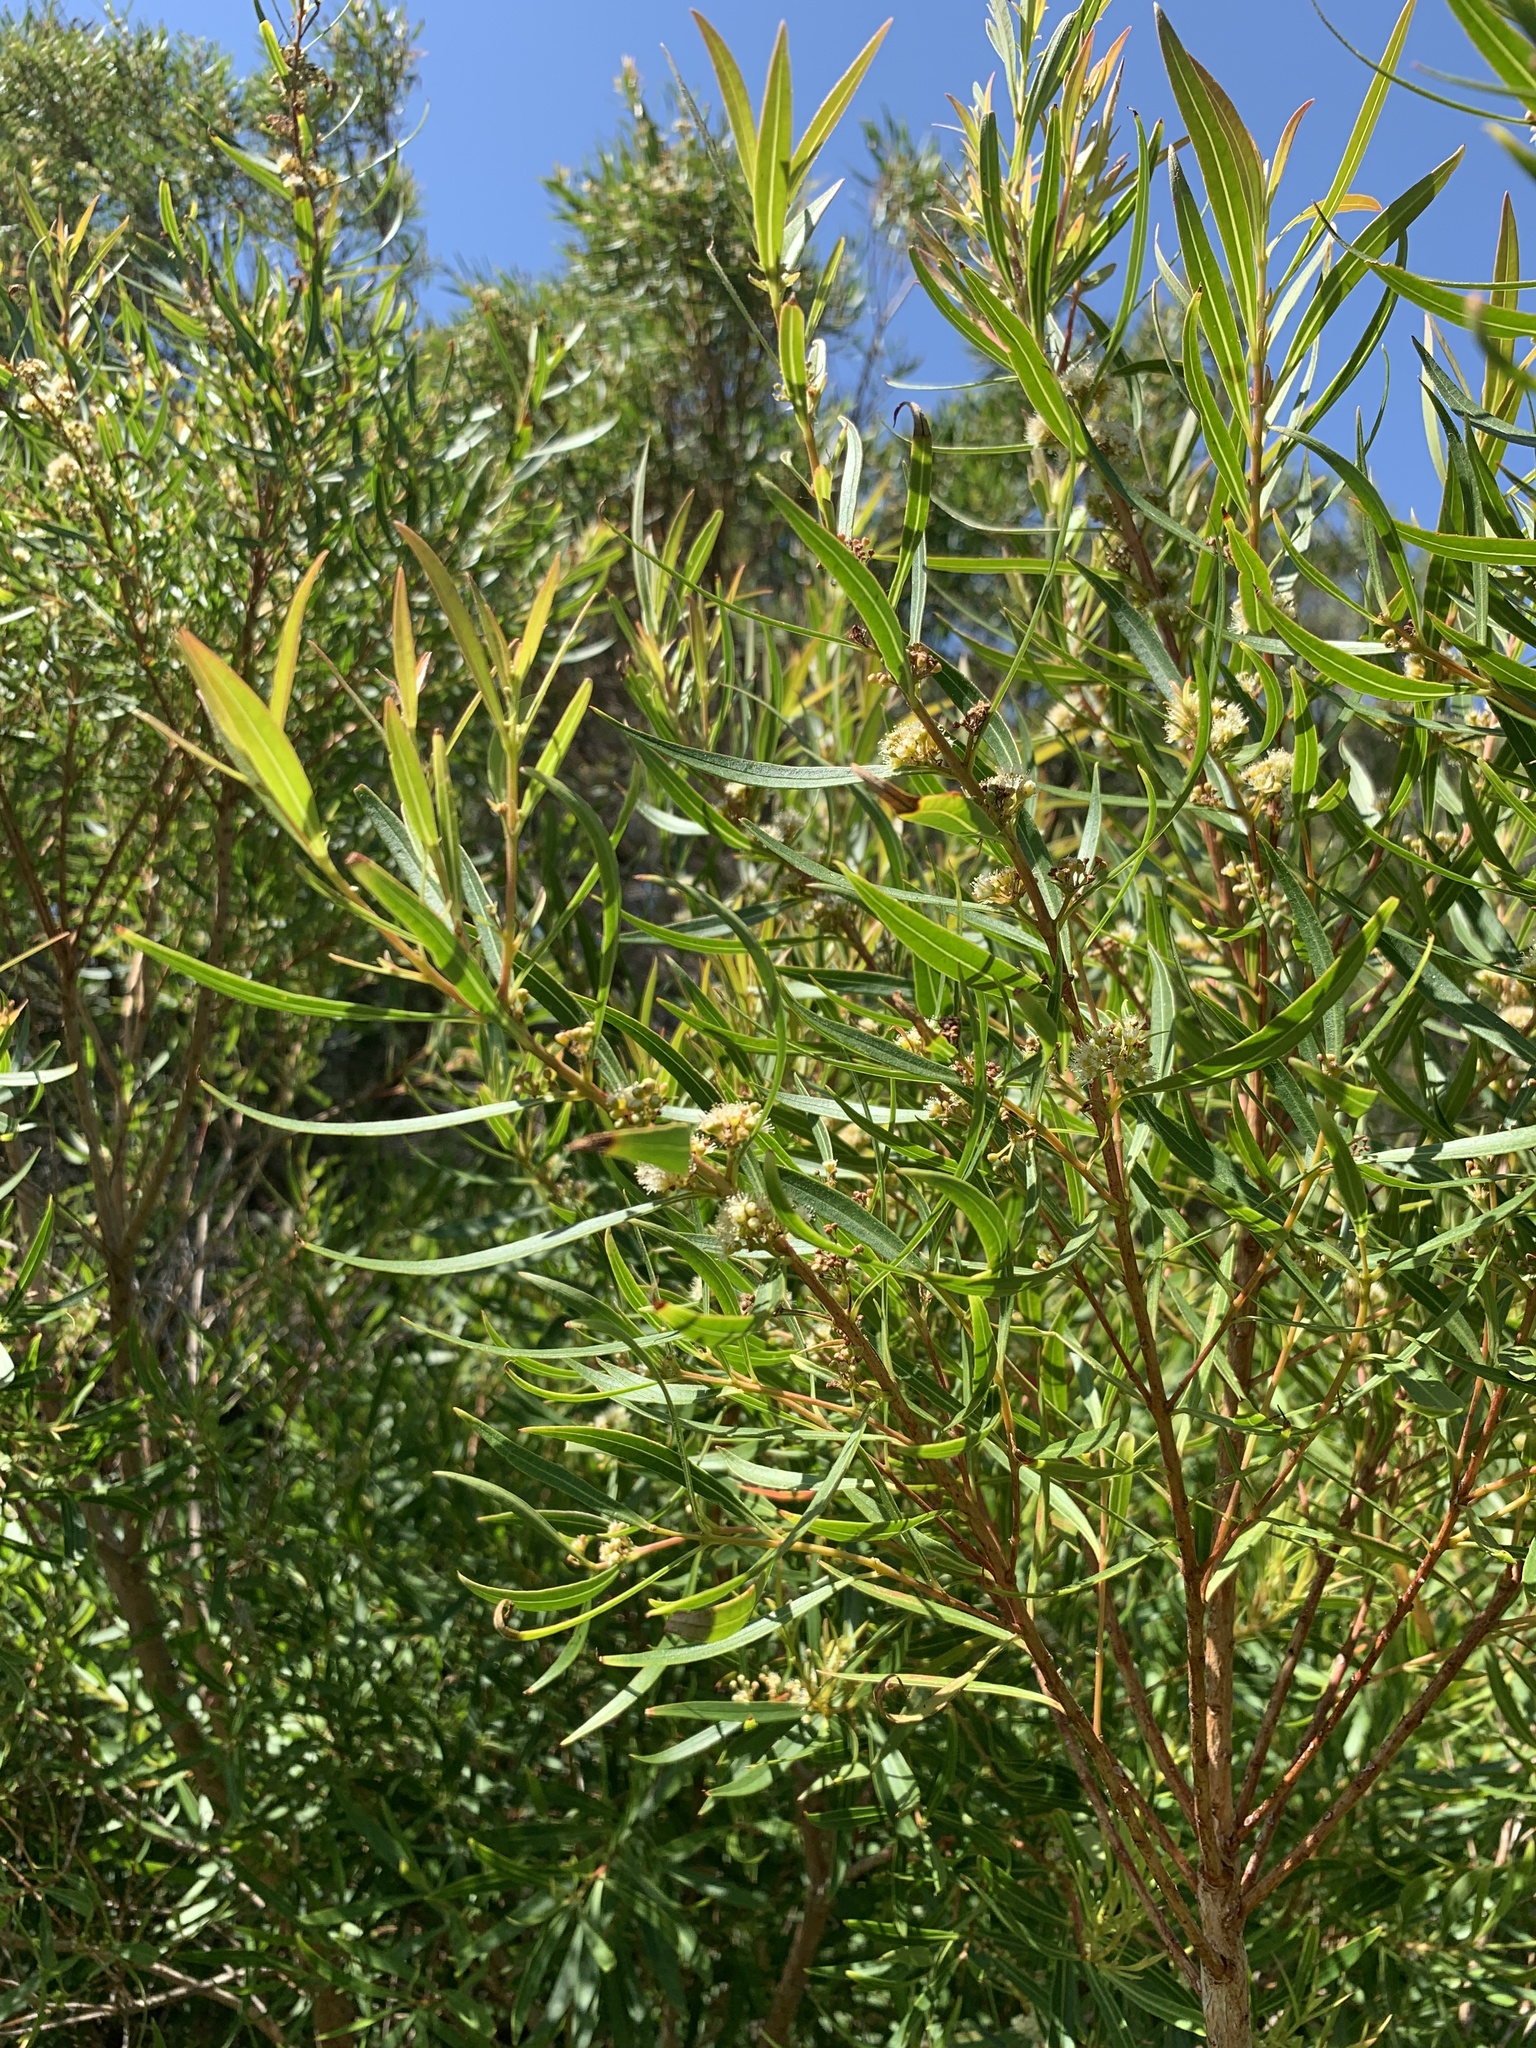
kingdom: Plantae
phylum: Tracheophyta
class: Magnoliopsida
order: Myrtales
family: Myrtaceae
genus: Callistemon
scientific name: Callistemon lanceolatus
